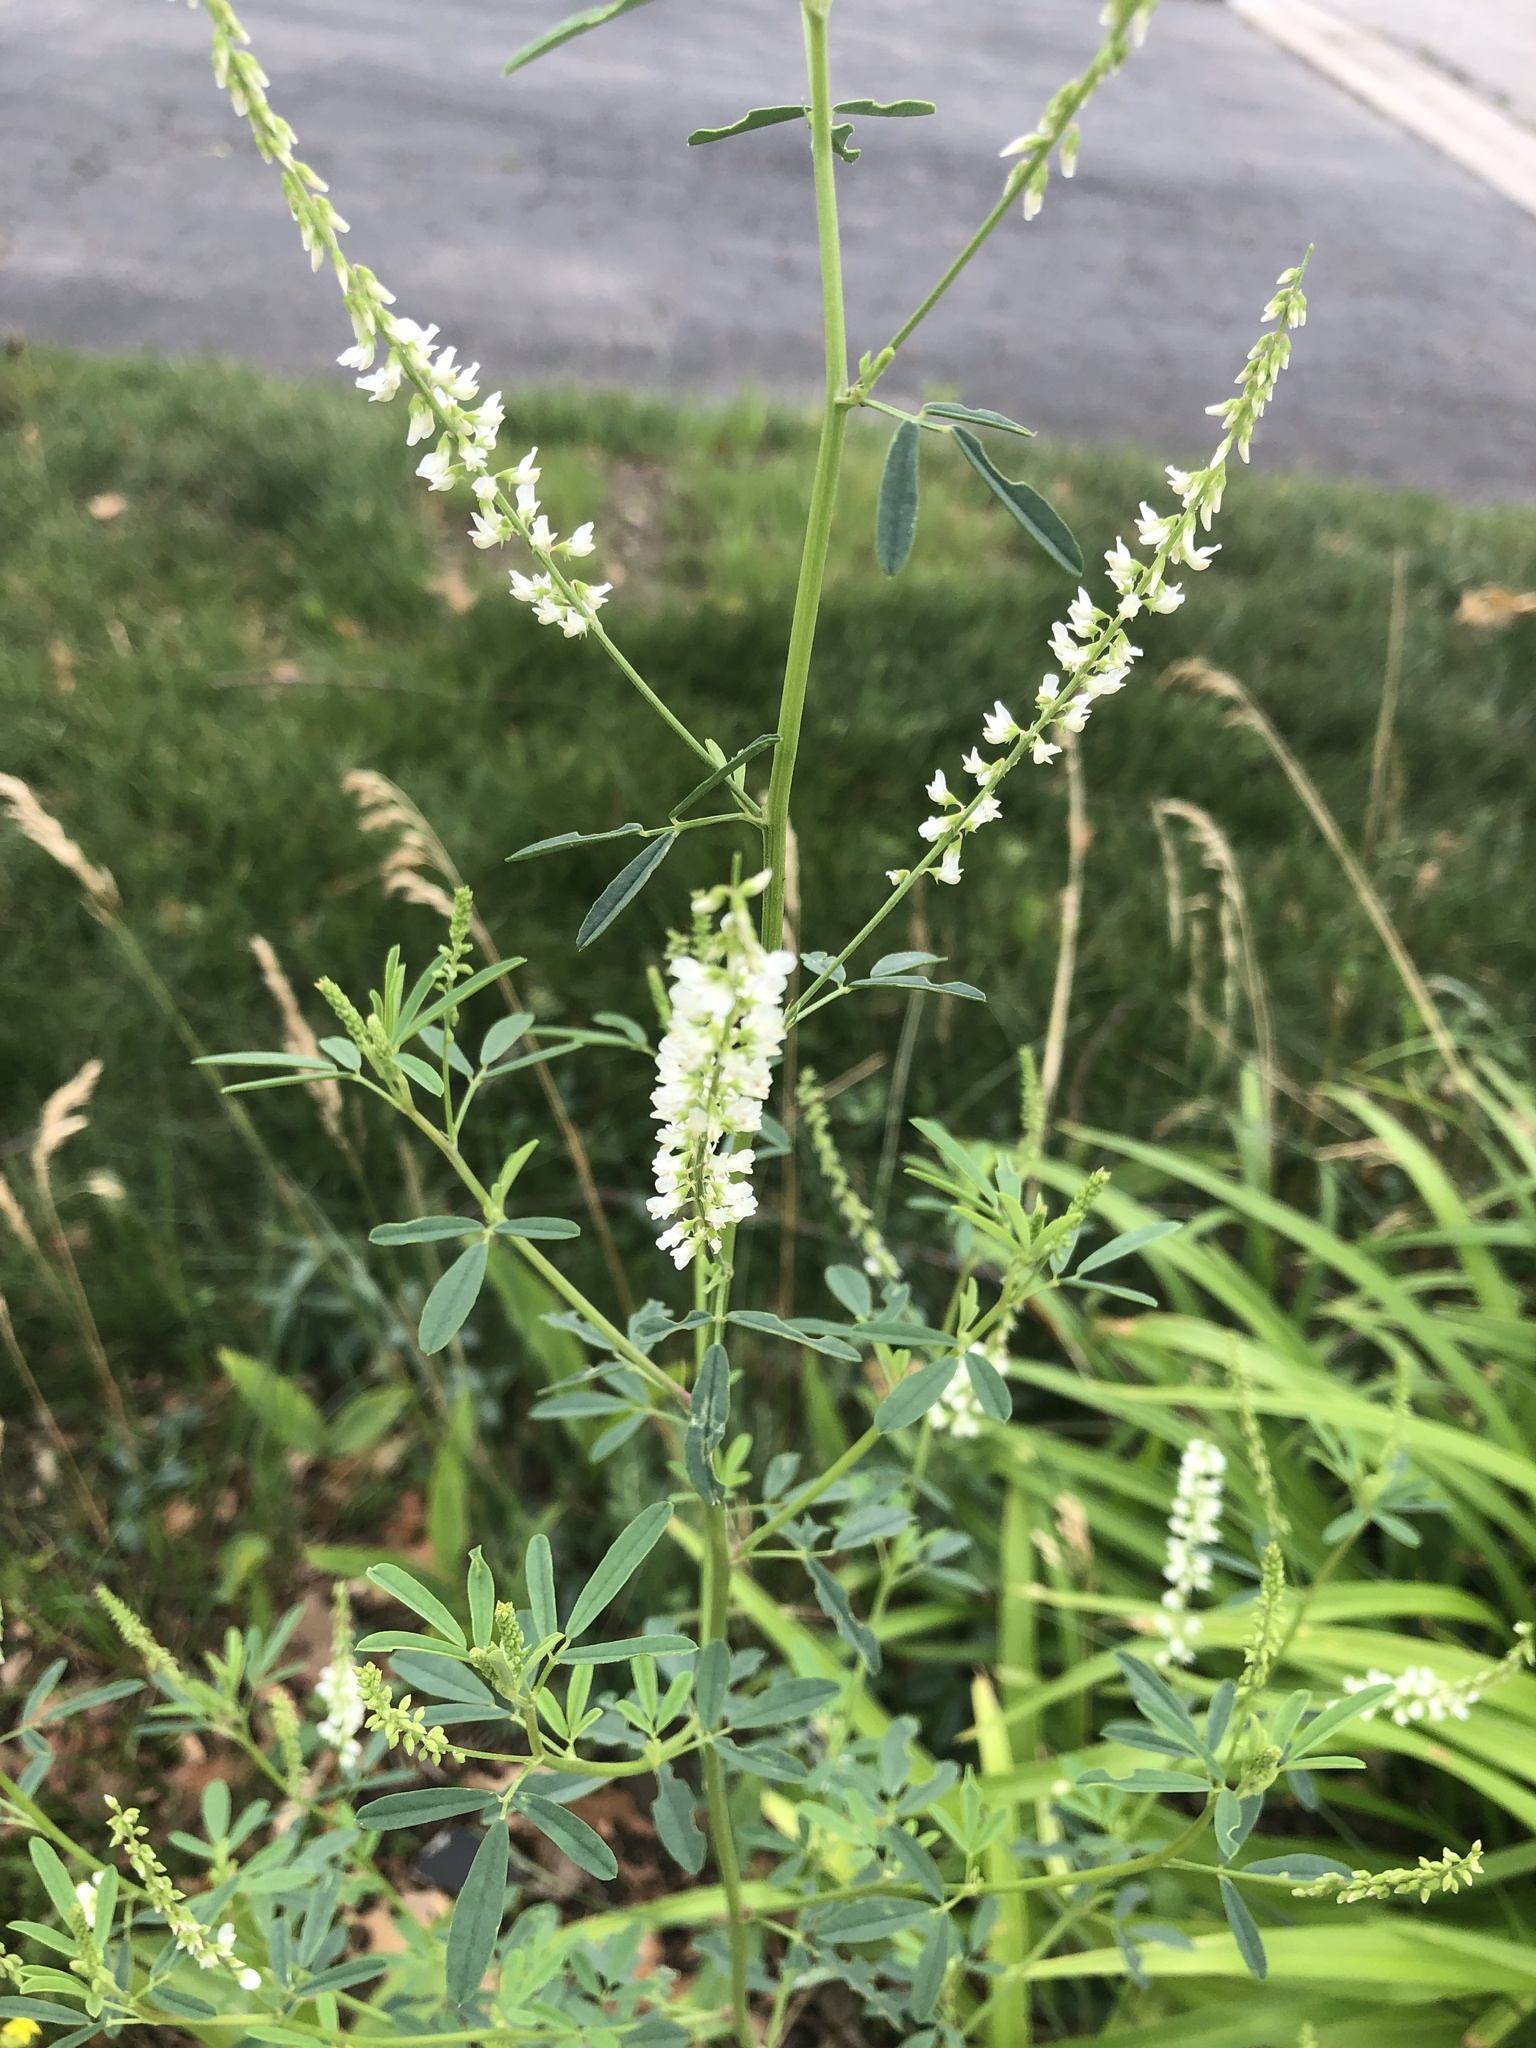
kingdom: Plantae
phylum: Tracheophyta
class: Magnoliopsida
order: Fabales
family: Fabaceae
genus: Melilotus
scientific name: Melilotus albus
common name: White melilot
